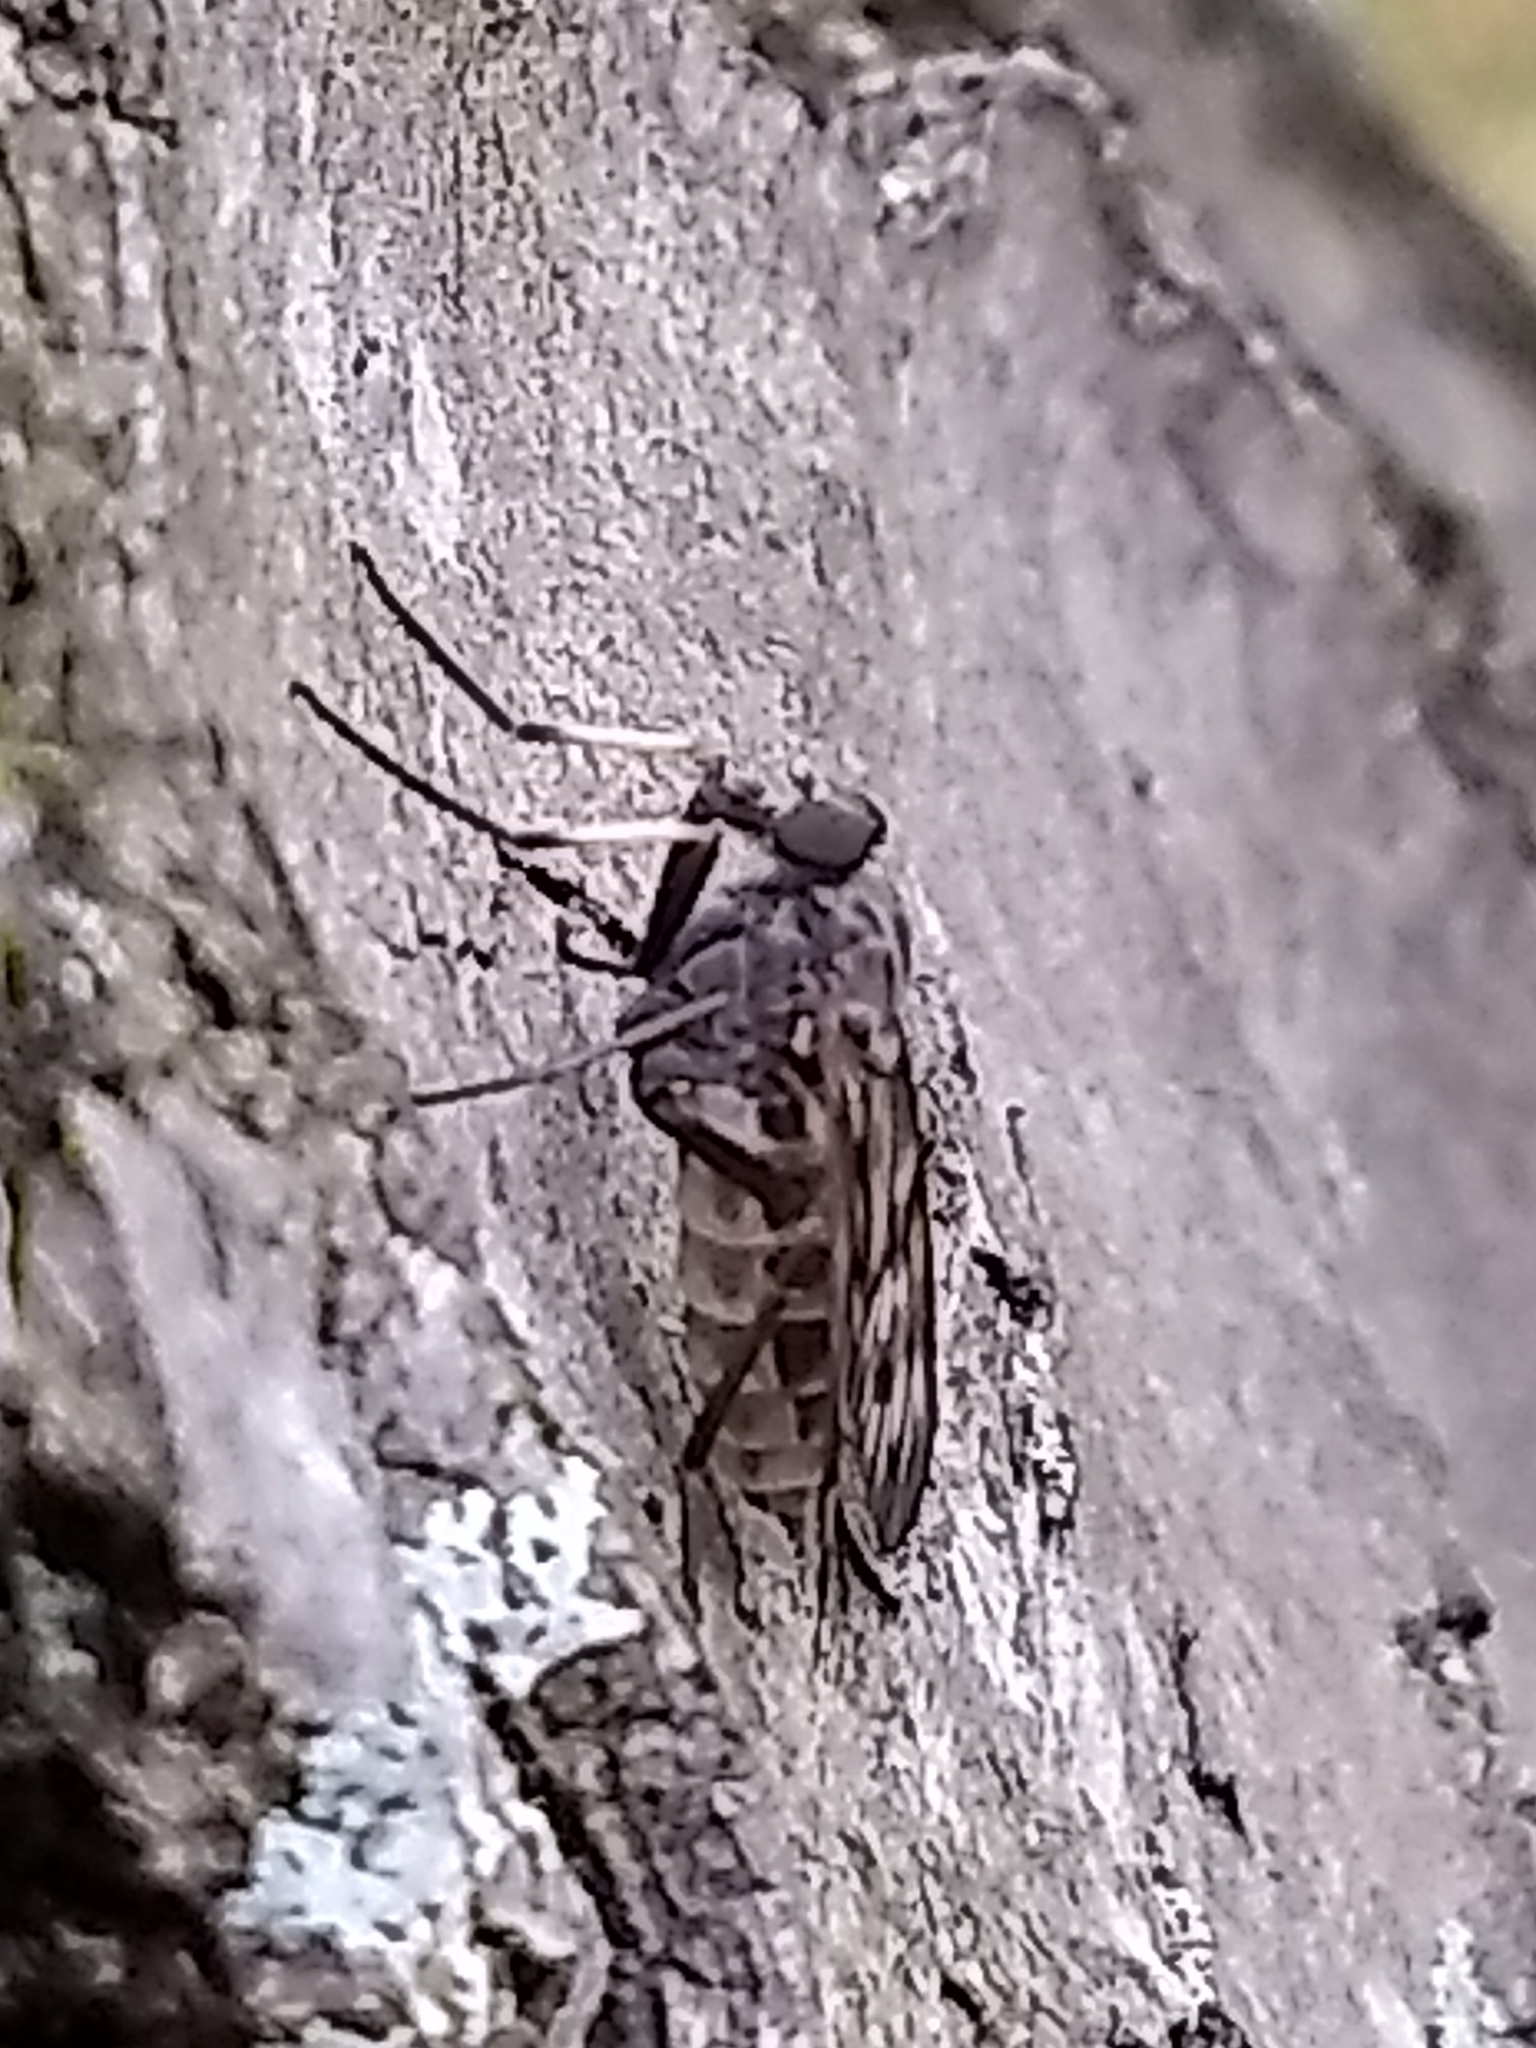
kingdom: Animalia
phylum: Arthropoda
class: Insecta
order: Diptera
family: Rhagionidae
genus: Rhagio
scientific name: Rhagio mystaceus
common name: Common snipe fly
